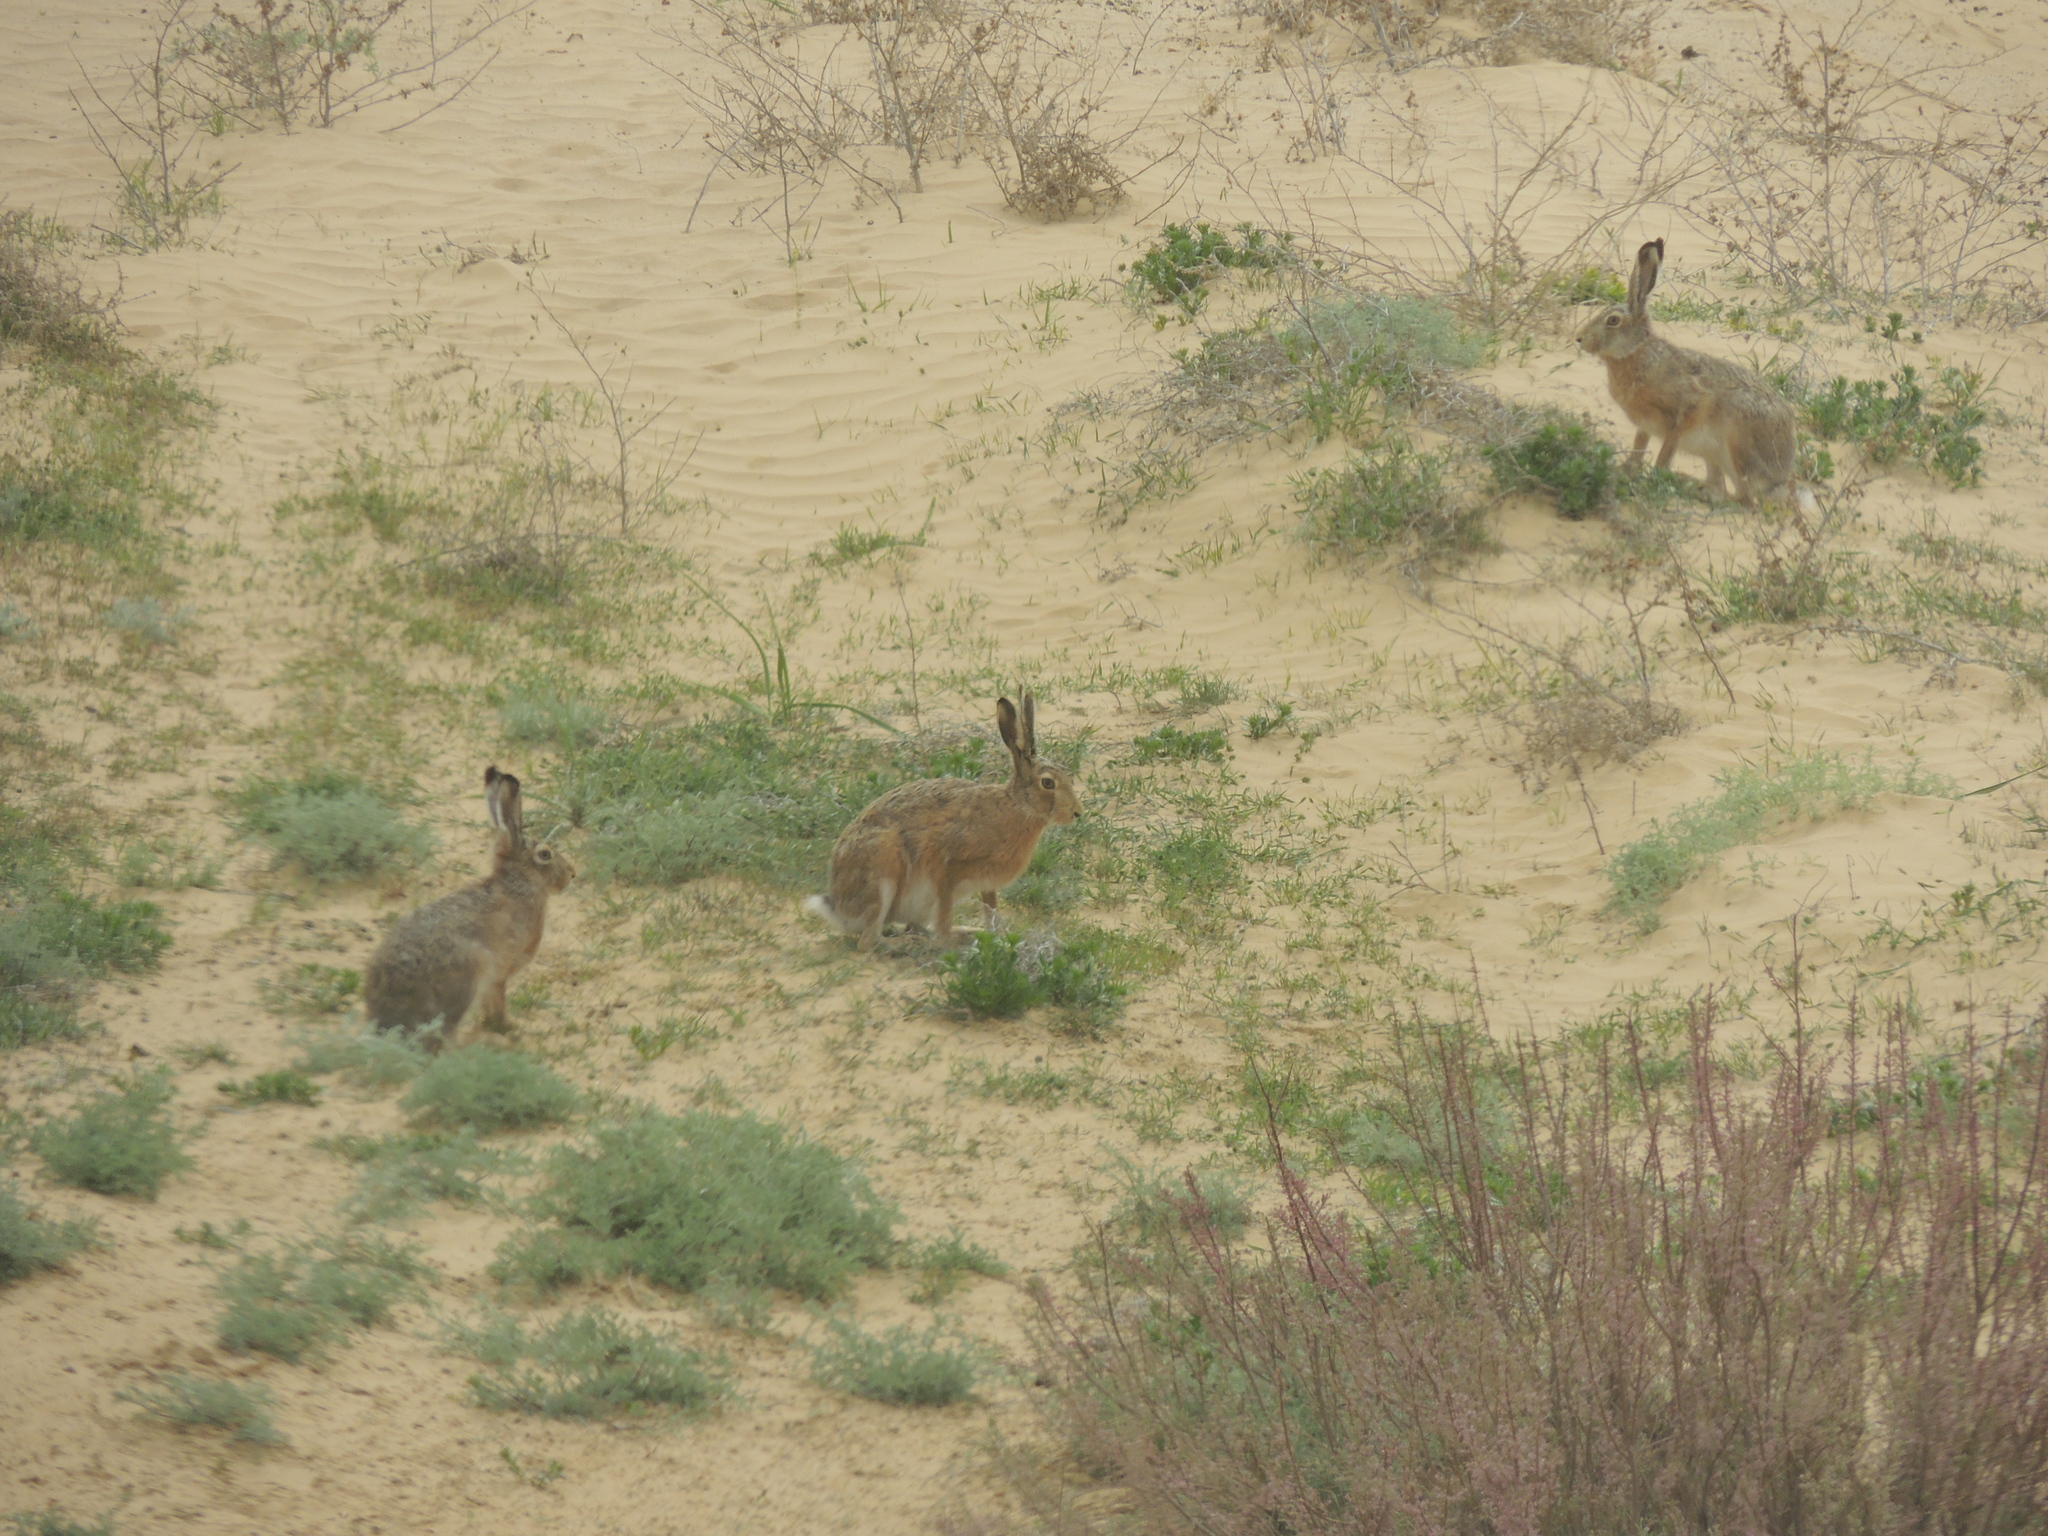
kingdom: Animalia
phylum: Chordata
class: Mammalia
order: Lagomorpha
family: Leporidae
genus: Lepus
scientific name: Lepus europaeus
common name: European hare
